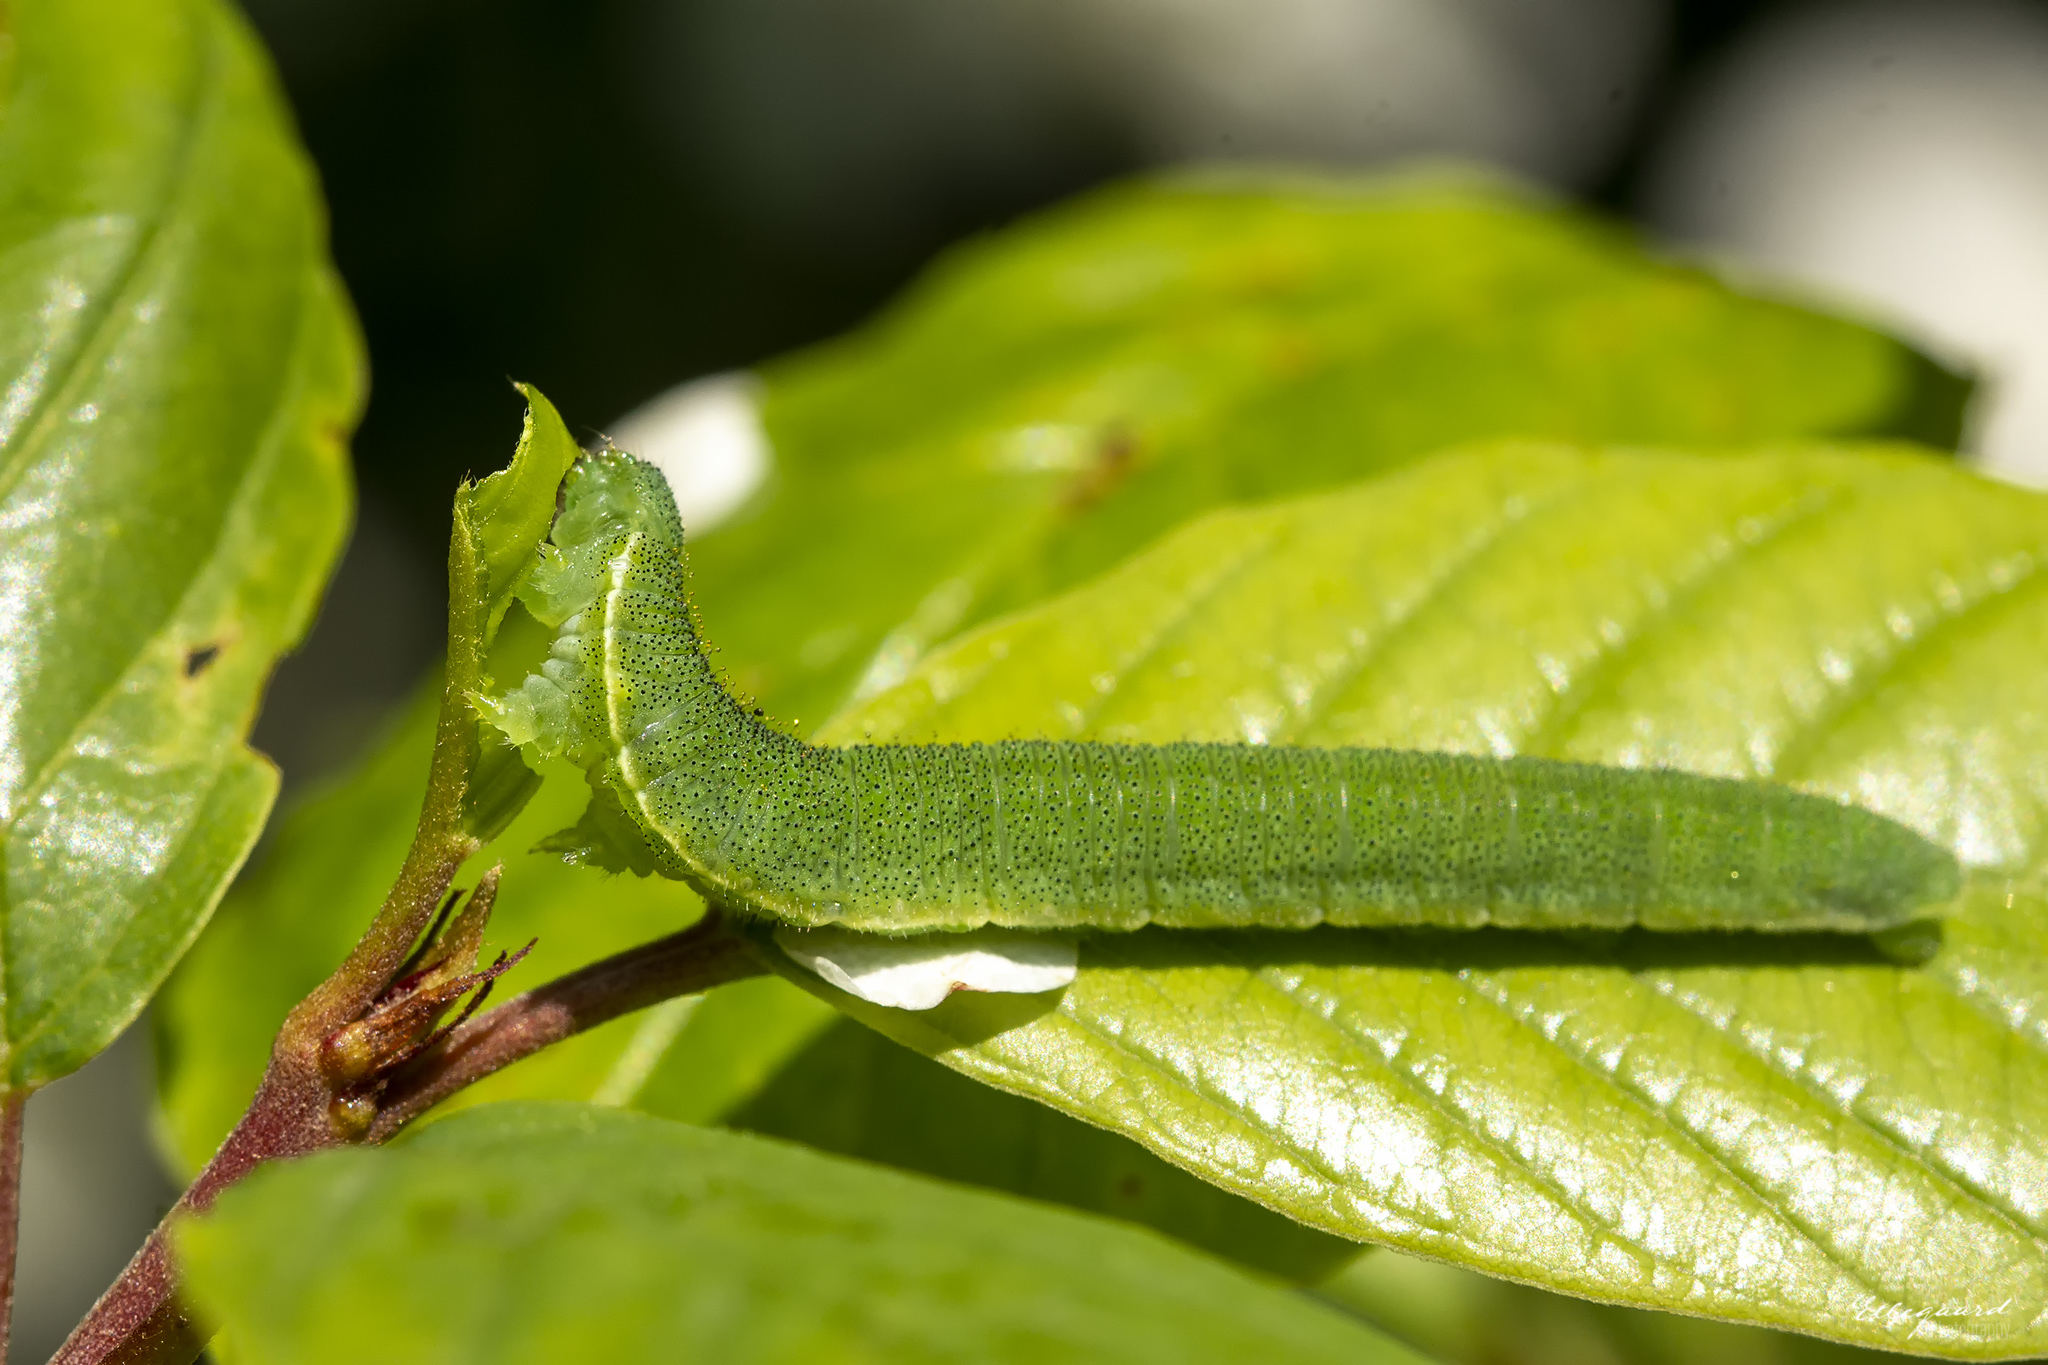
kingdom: Animalia
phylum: Arthropoda
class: Insecta
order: Lepidoptera
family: Pieridae
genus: Gonepteryx
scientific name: Gonepteryx rhamni
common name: Brimstone
